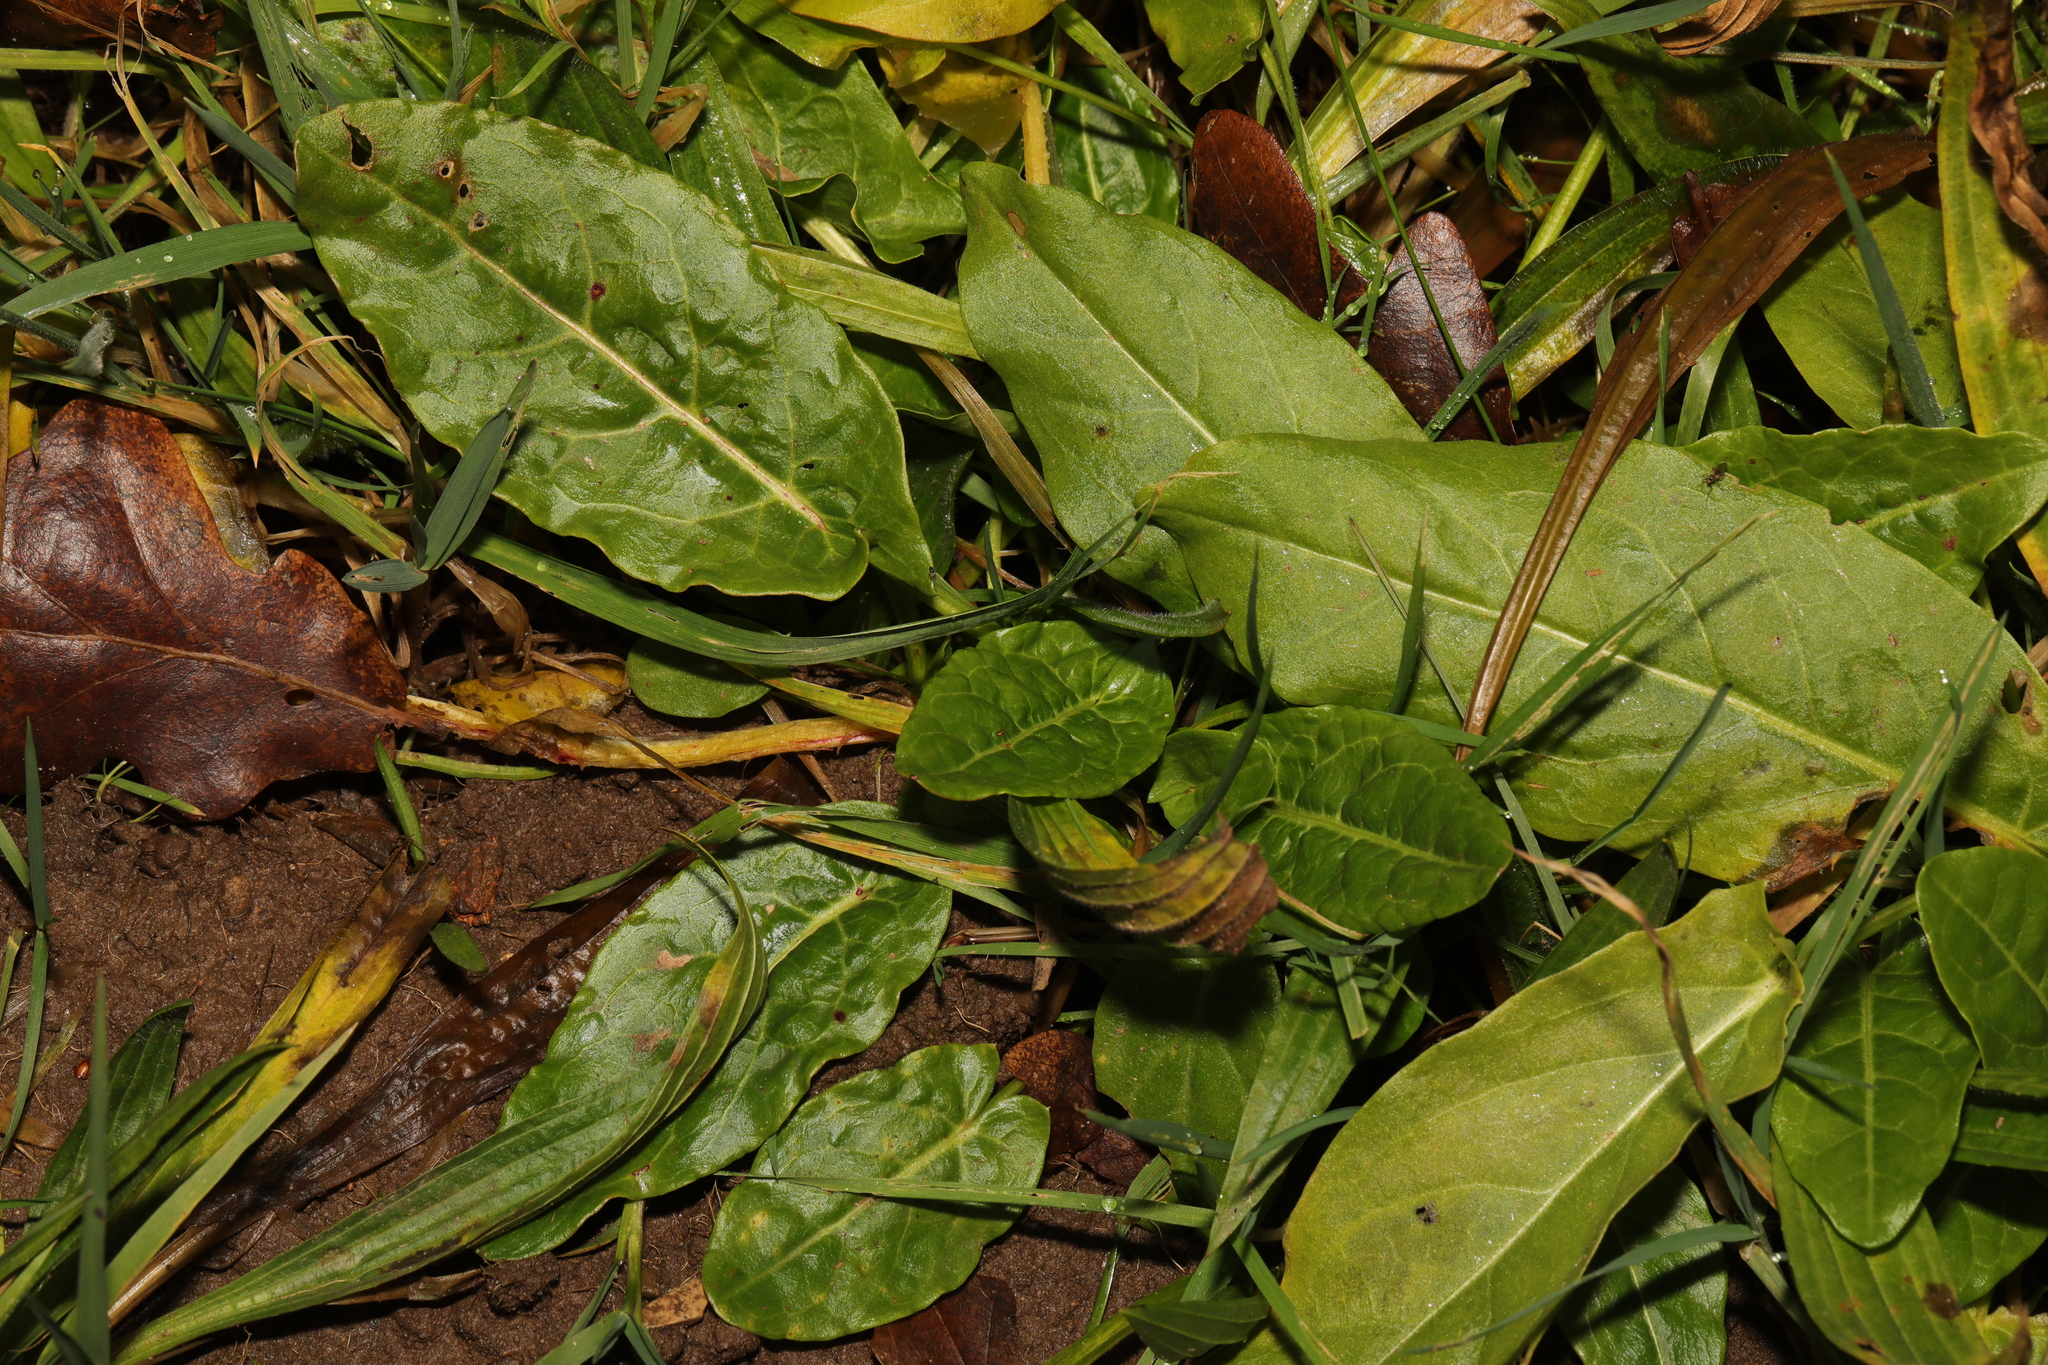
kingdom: Plantae
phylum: Tracheophyta
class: Magnoliopsida
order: Caryophyllales
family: Polygonaceae
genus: Rumex
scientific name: Rumex acetosa
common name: Garden sorrel
